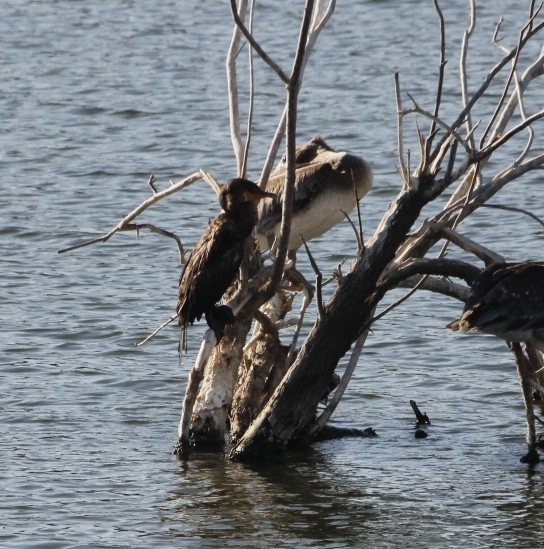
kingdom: Animalia
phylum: Chordata
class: Aves
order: Suliformes
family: Phalacrocoracidae
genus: Phalacrocorax
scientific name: Phalacrocorax auritus
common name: Double-crested cormorant
